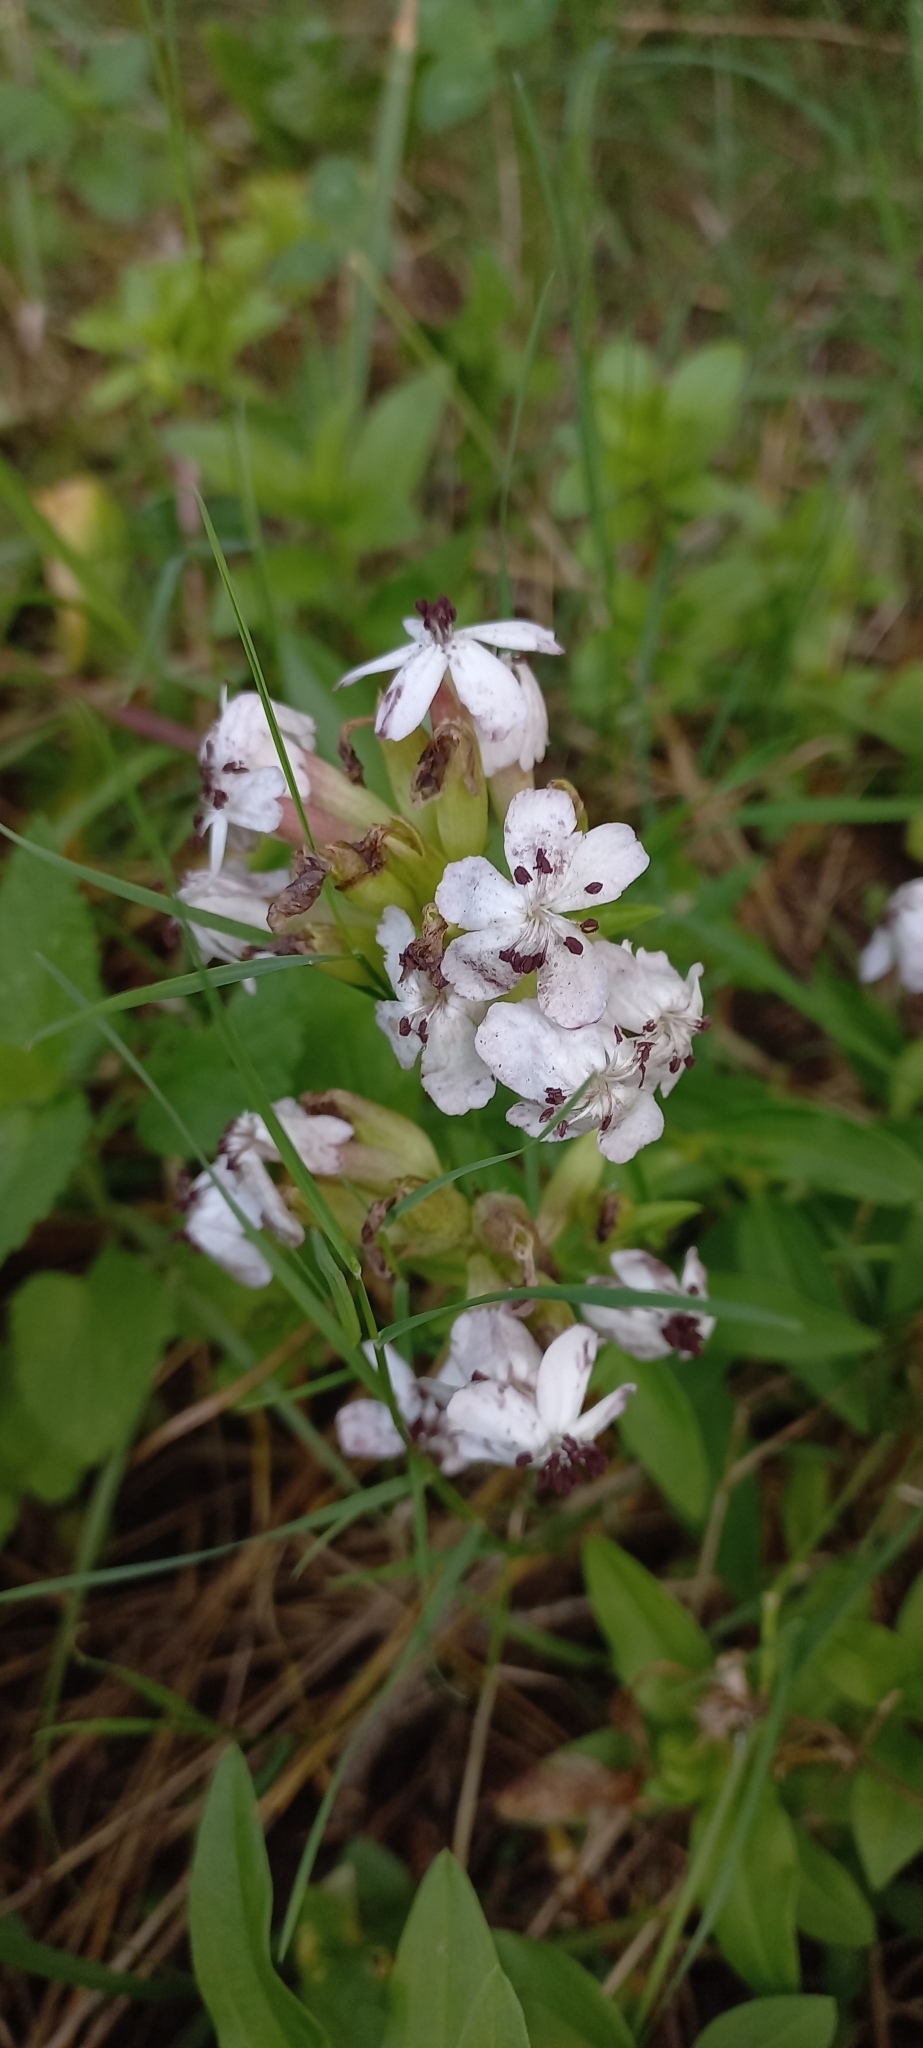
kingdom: Fungi
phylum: Basidiomycota
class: Microbotryomycetes
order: Microbotryales
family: Microbotryaceae
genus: Microbotryum
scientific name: Microbotryum saponariae
